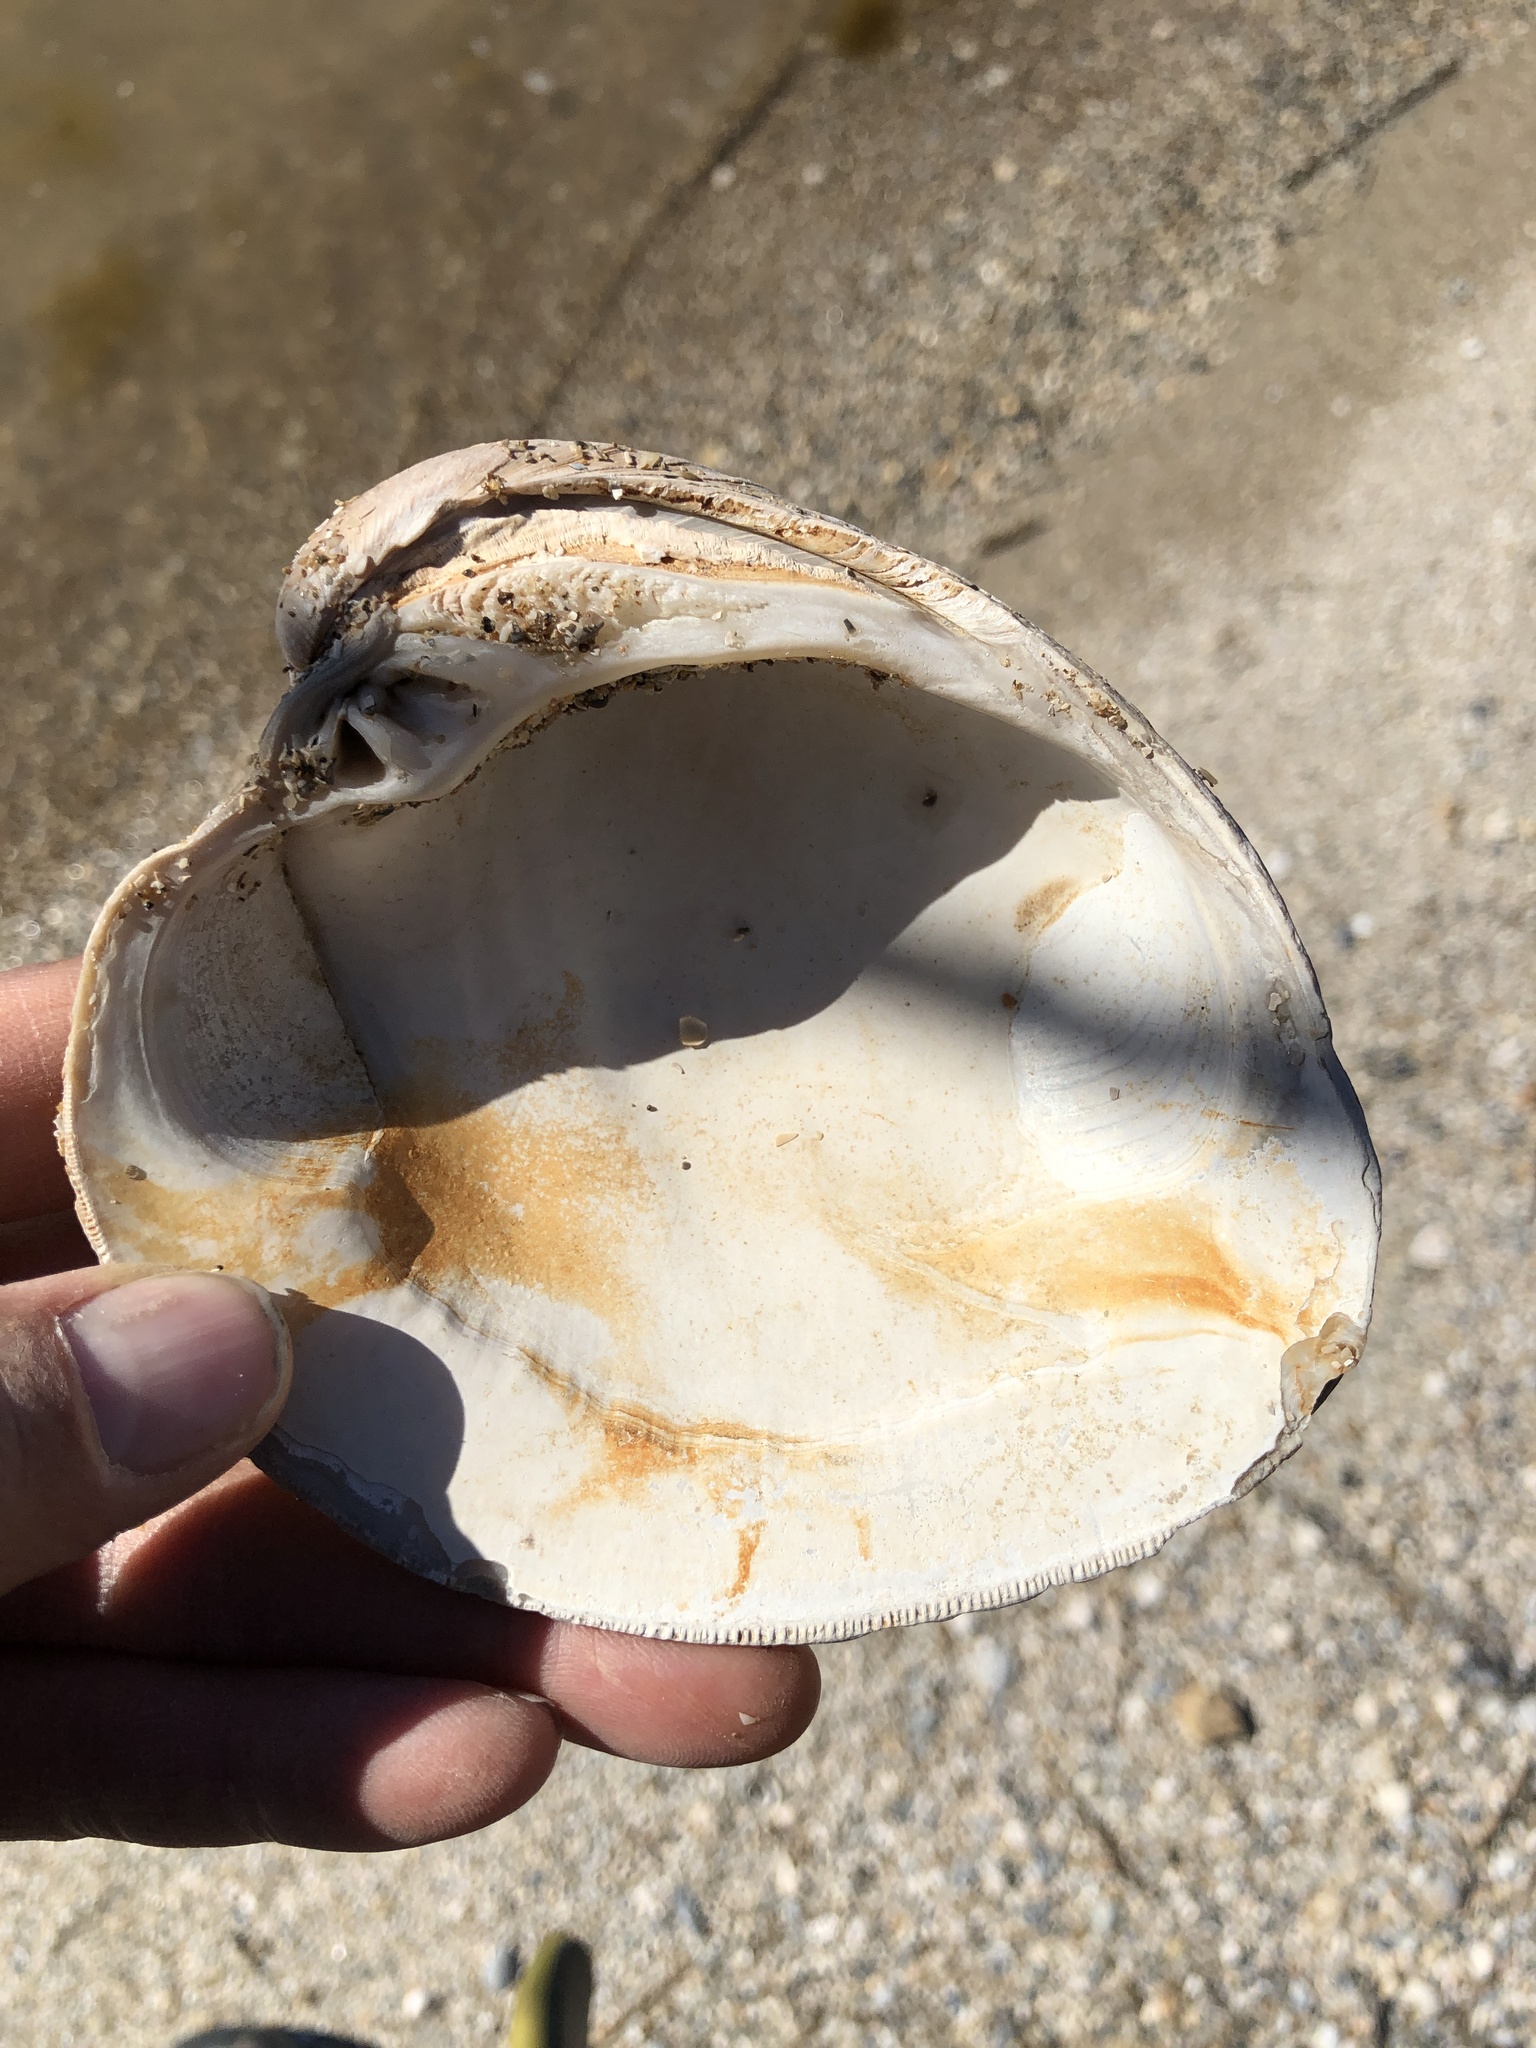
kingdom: Animalia
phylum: Mollusca
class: Bivalvia
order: Venerida
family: Veneridae
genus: Mercenaria
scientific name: Mercenaria campechiensis
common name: Südliche quahog-muschel
